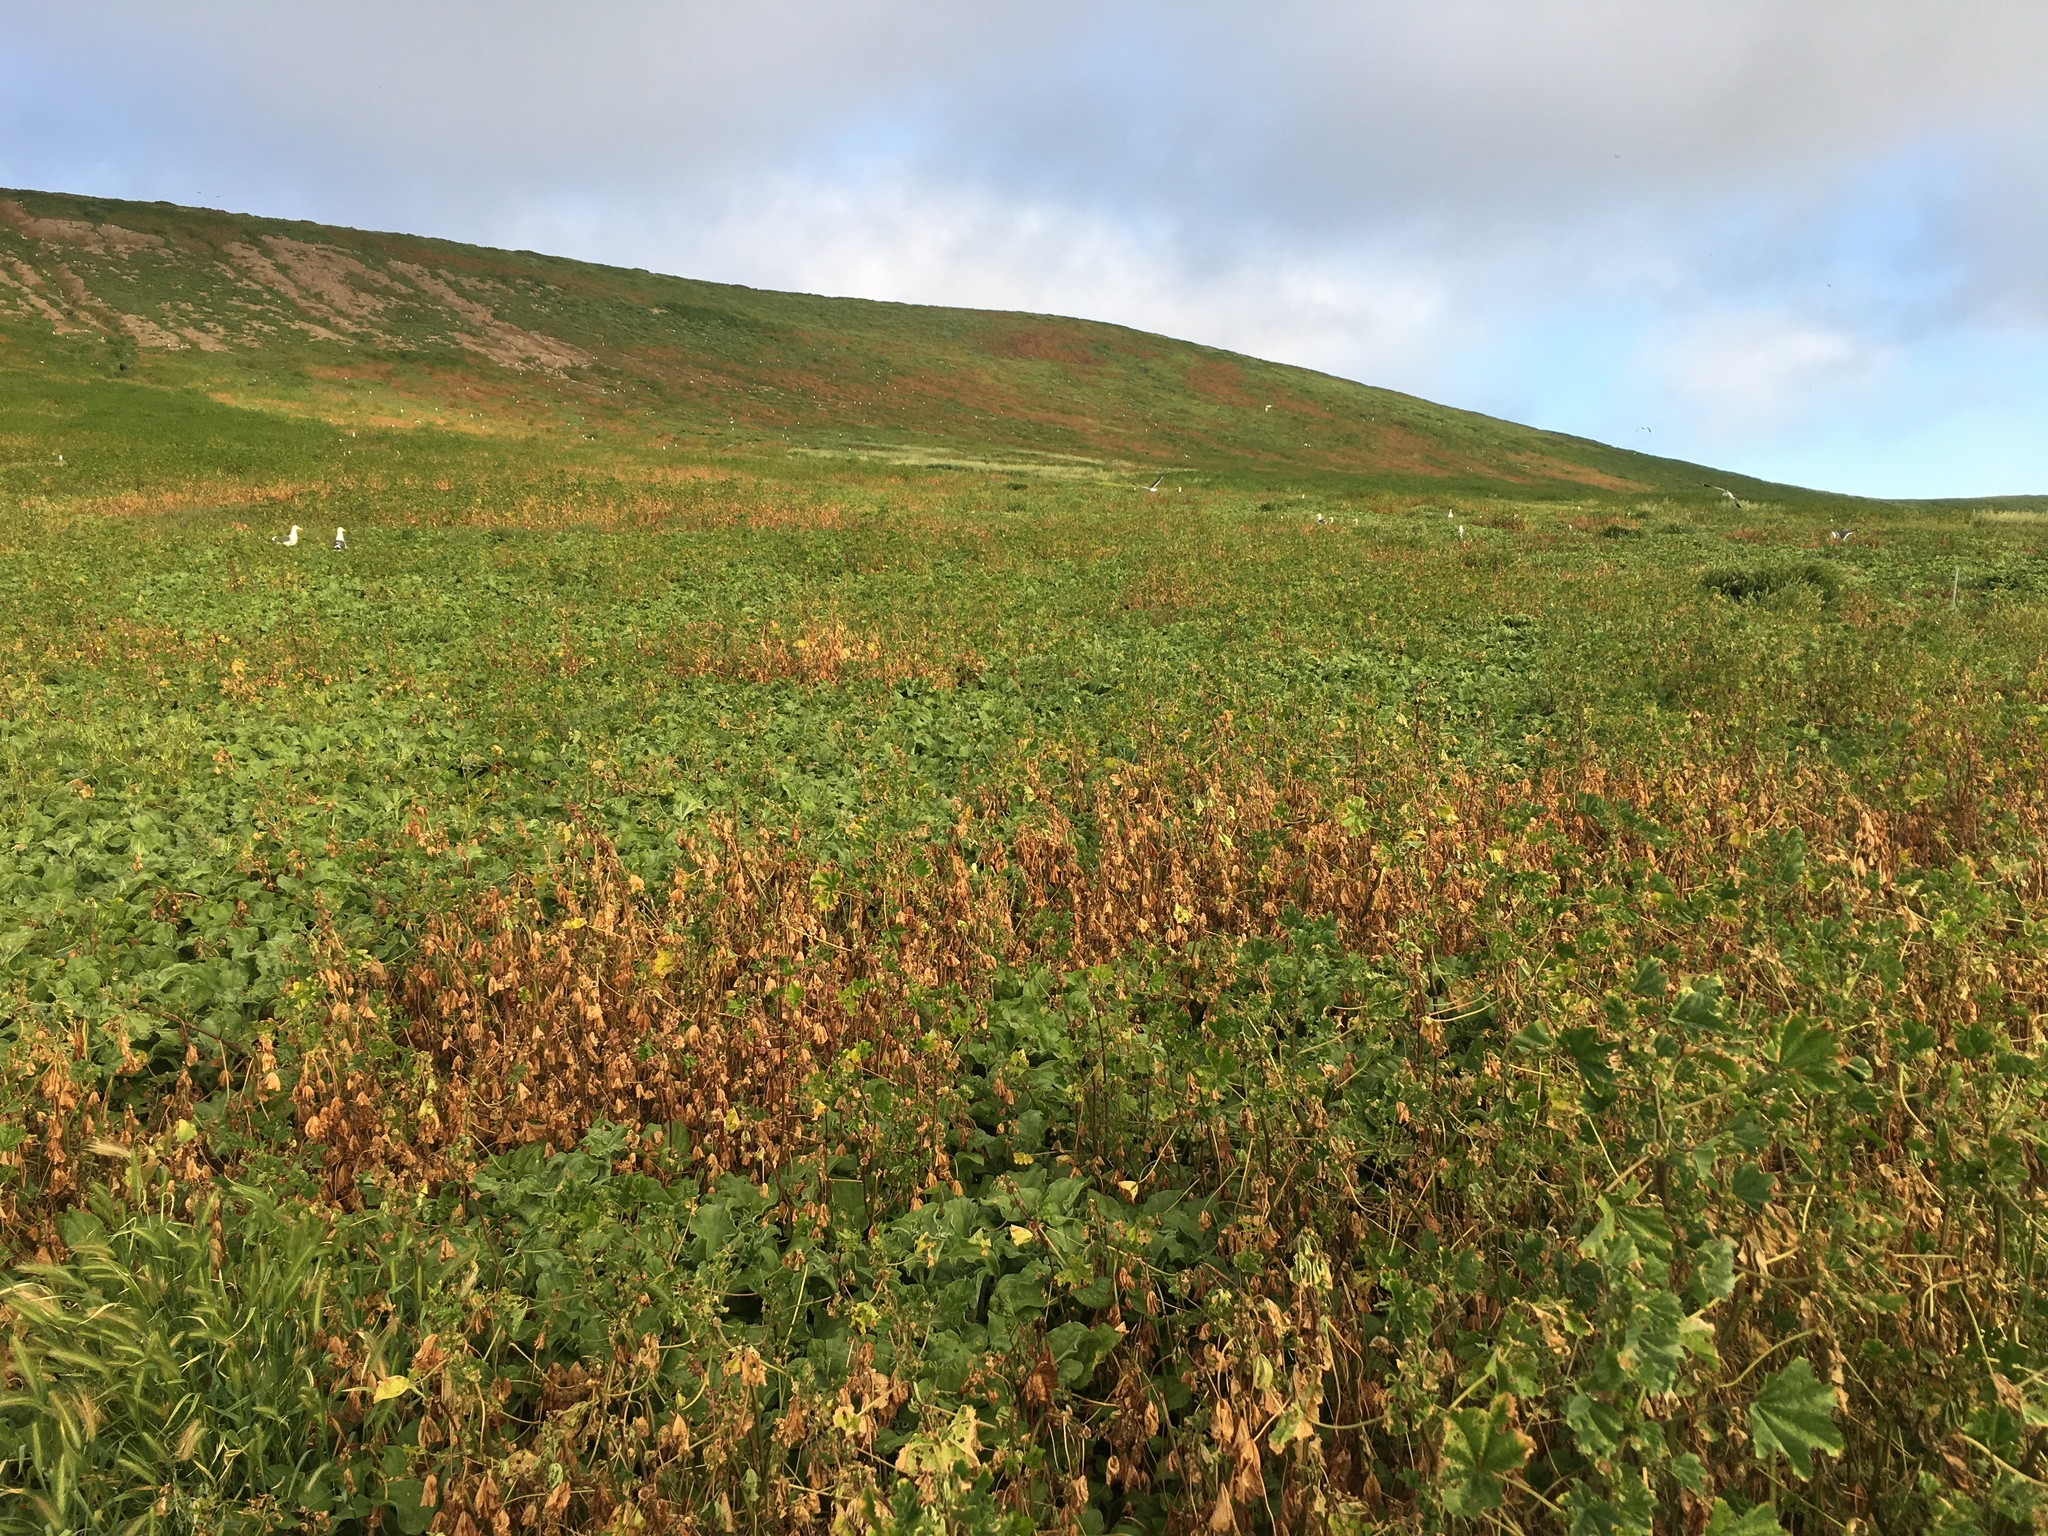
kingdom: Plantae
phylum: Tracheophyta
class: Magnoliopsida
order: Malvales
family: Malvaceae
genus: Malva
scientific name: Malva parviflora
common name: Least mallow
